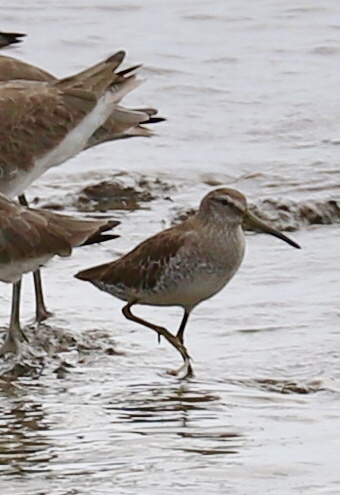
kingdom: Animalia
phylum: Chordata
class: Aves
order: Charadriiformes
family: Scolopacidae
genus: Limnodromus
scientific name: Limnodromus griseus
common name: Short-billed dowitcher
